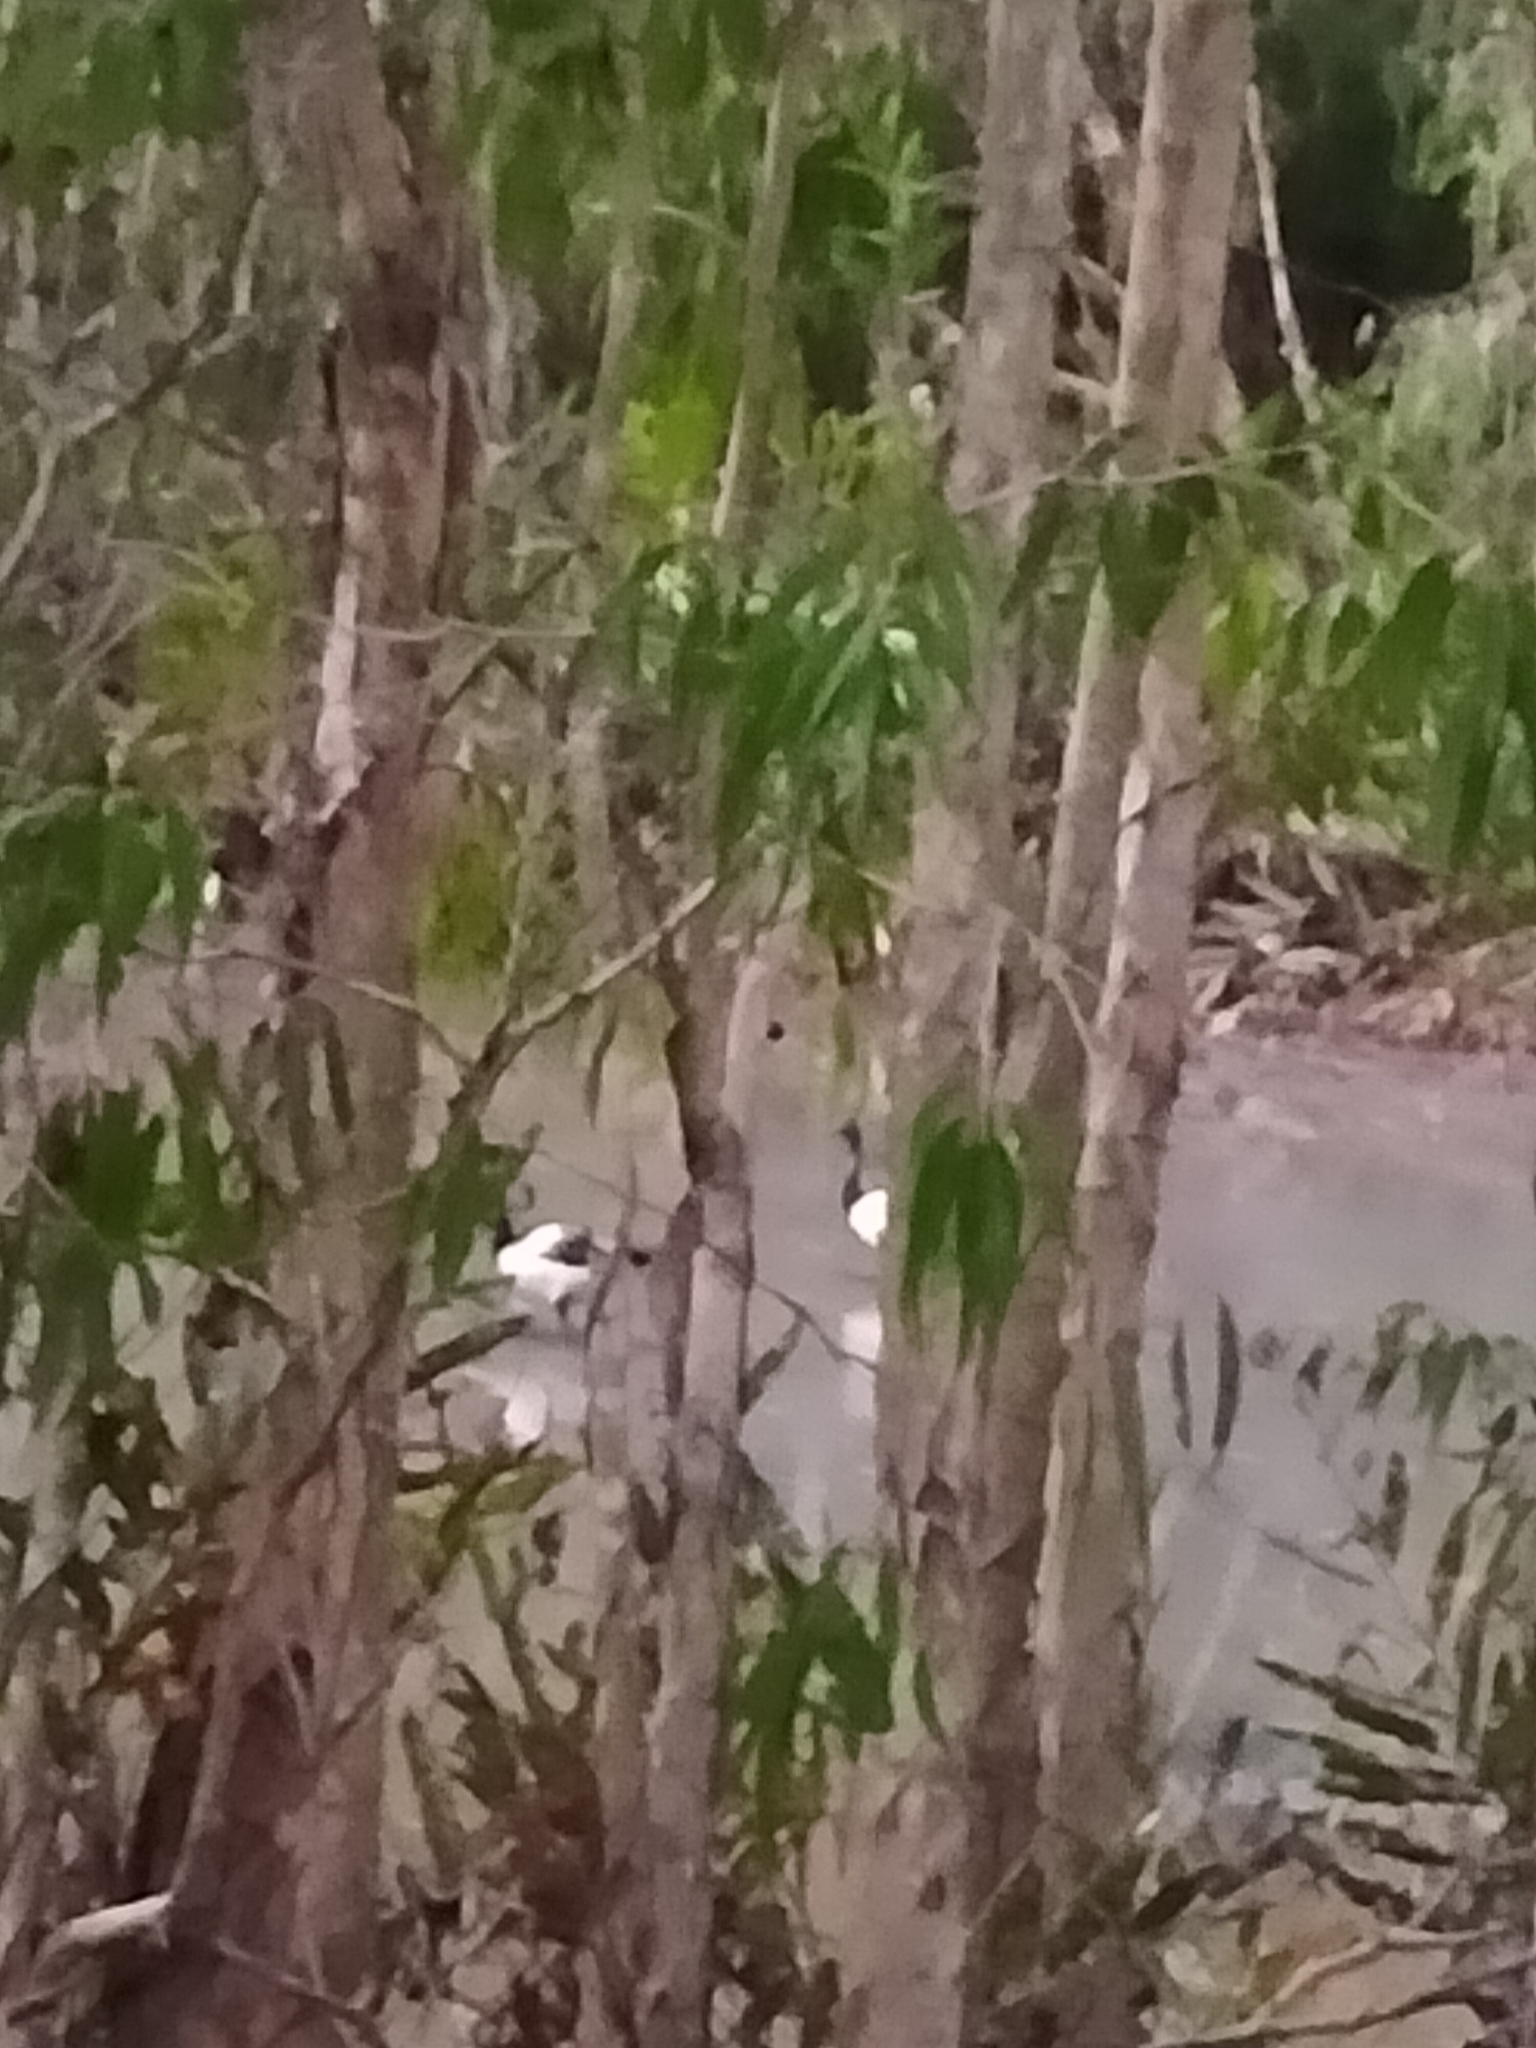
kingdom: Animalia
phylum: Chordata
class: Aves
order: Anseriformes
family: Anseranatidae
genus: Anseranas
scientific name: Anseranas semipalmata
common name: Magpie goose
